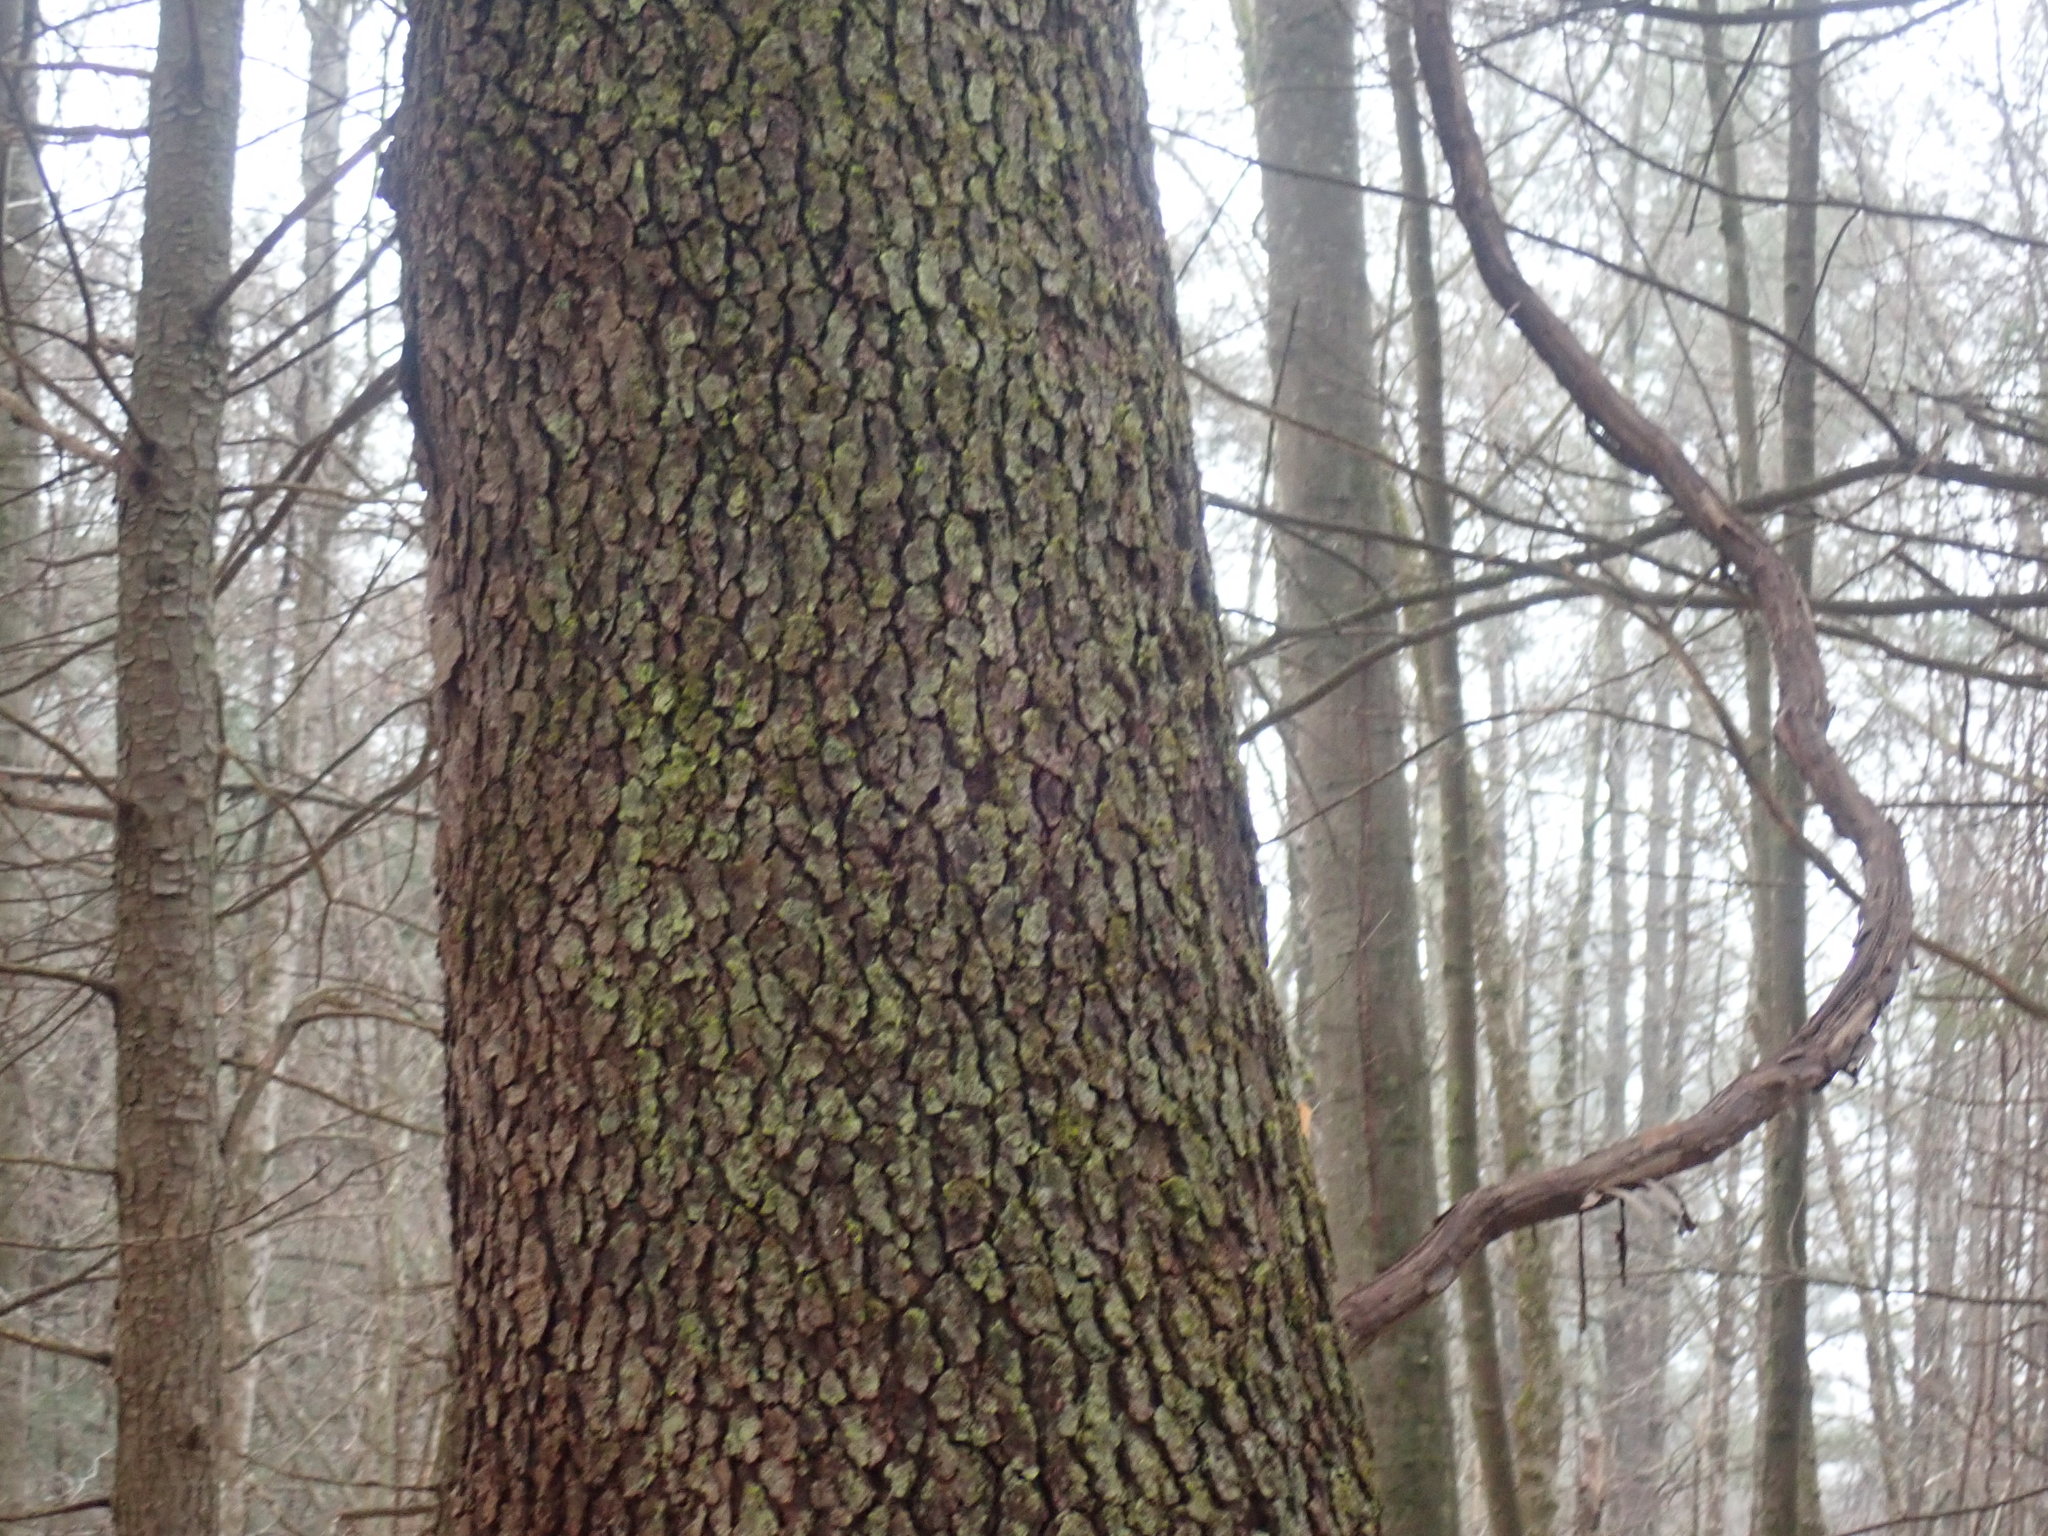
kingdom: Plantae
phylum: Tracheophyta
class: Magnoliopsida
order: Rosales
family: Rosaceae
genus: Prunus
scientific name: Prunus serotina
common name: Black cherry
